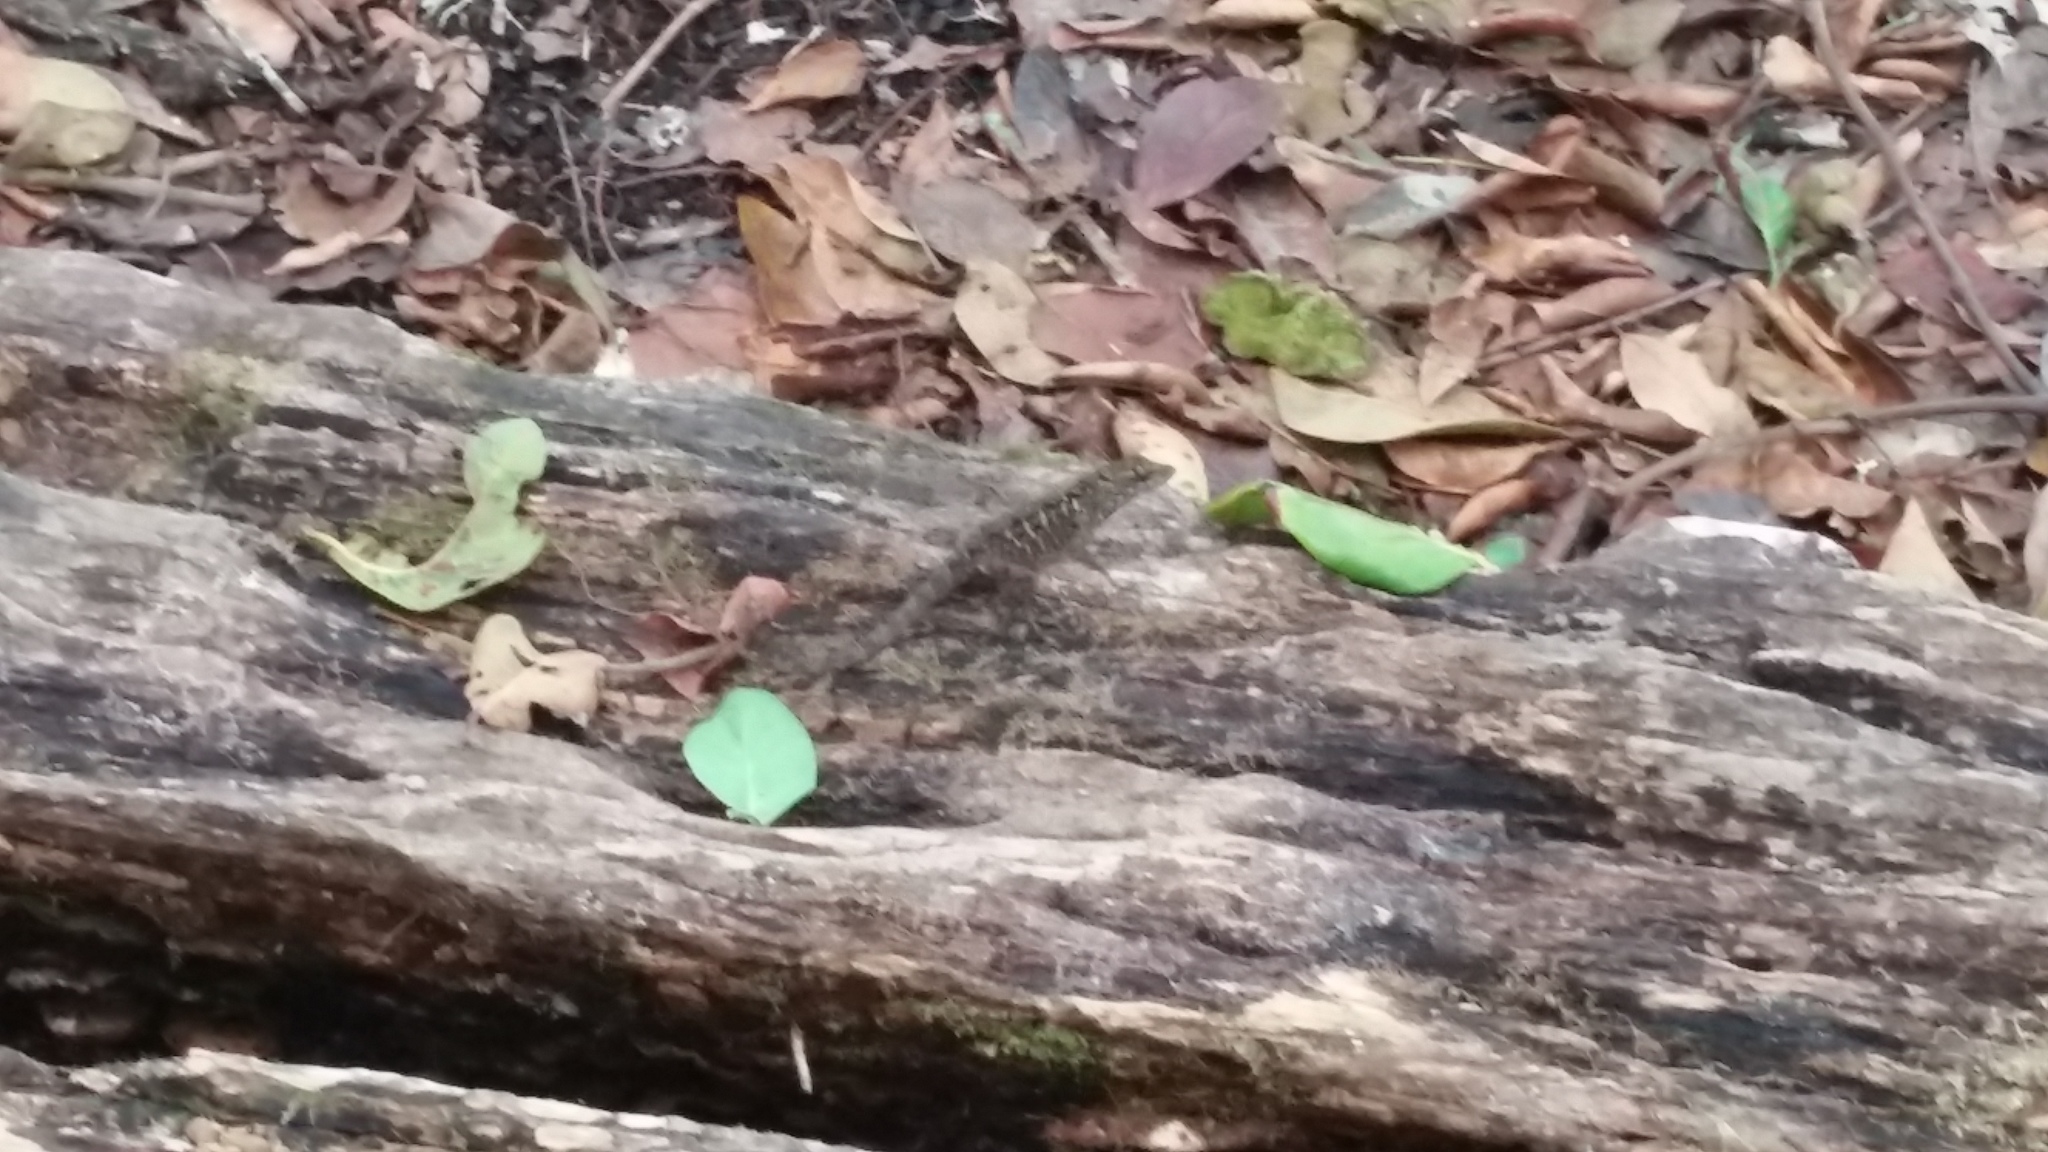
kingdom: Animalia
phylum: Chordata
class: Squamata
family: Dactyloidae
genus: Anolis
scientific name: Anolis sagrei
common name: Brown anole
